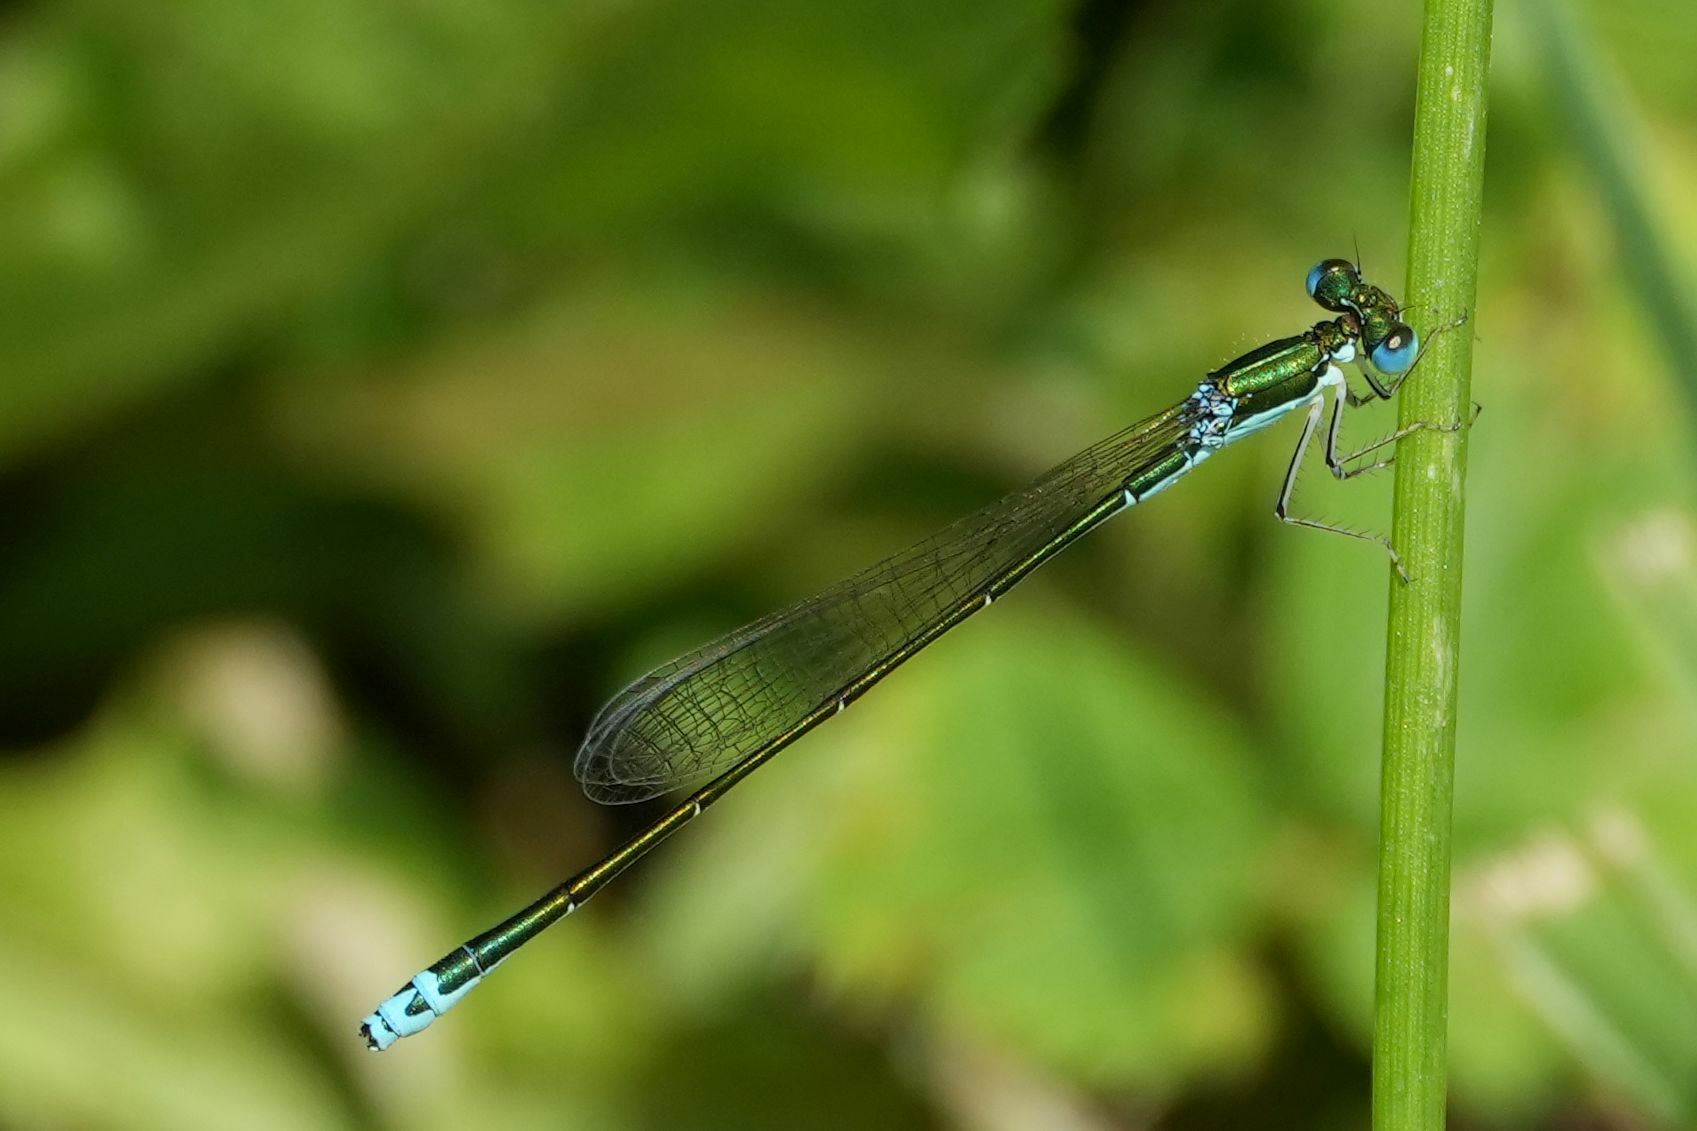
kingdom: Animalia
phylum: Arthropoda
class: Insecta
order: Odonata
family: Coenagrionidae
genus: Nehalennia
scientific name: Nehalennia irene
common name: Sedge sprite
